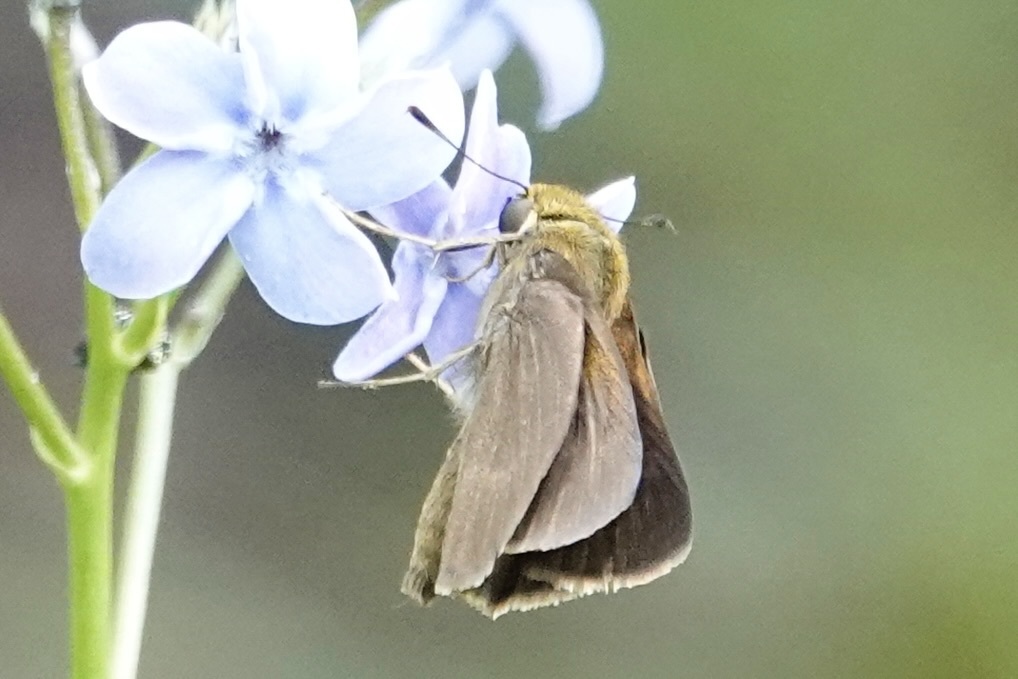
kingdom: Animalia
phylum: Arthropoda
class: Insecta
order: Lepidoptera
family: Hesperiidae
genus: Euphyes
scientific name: Euphyes vestris
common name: Dun skipper
